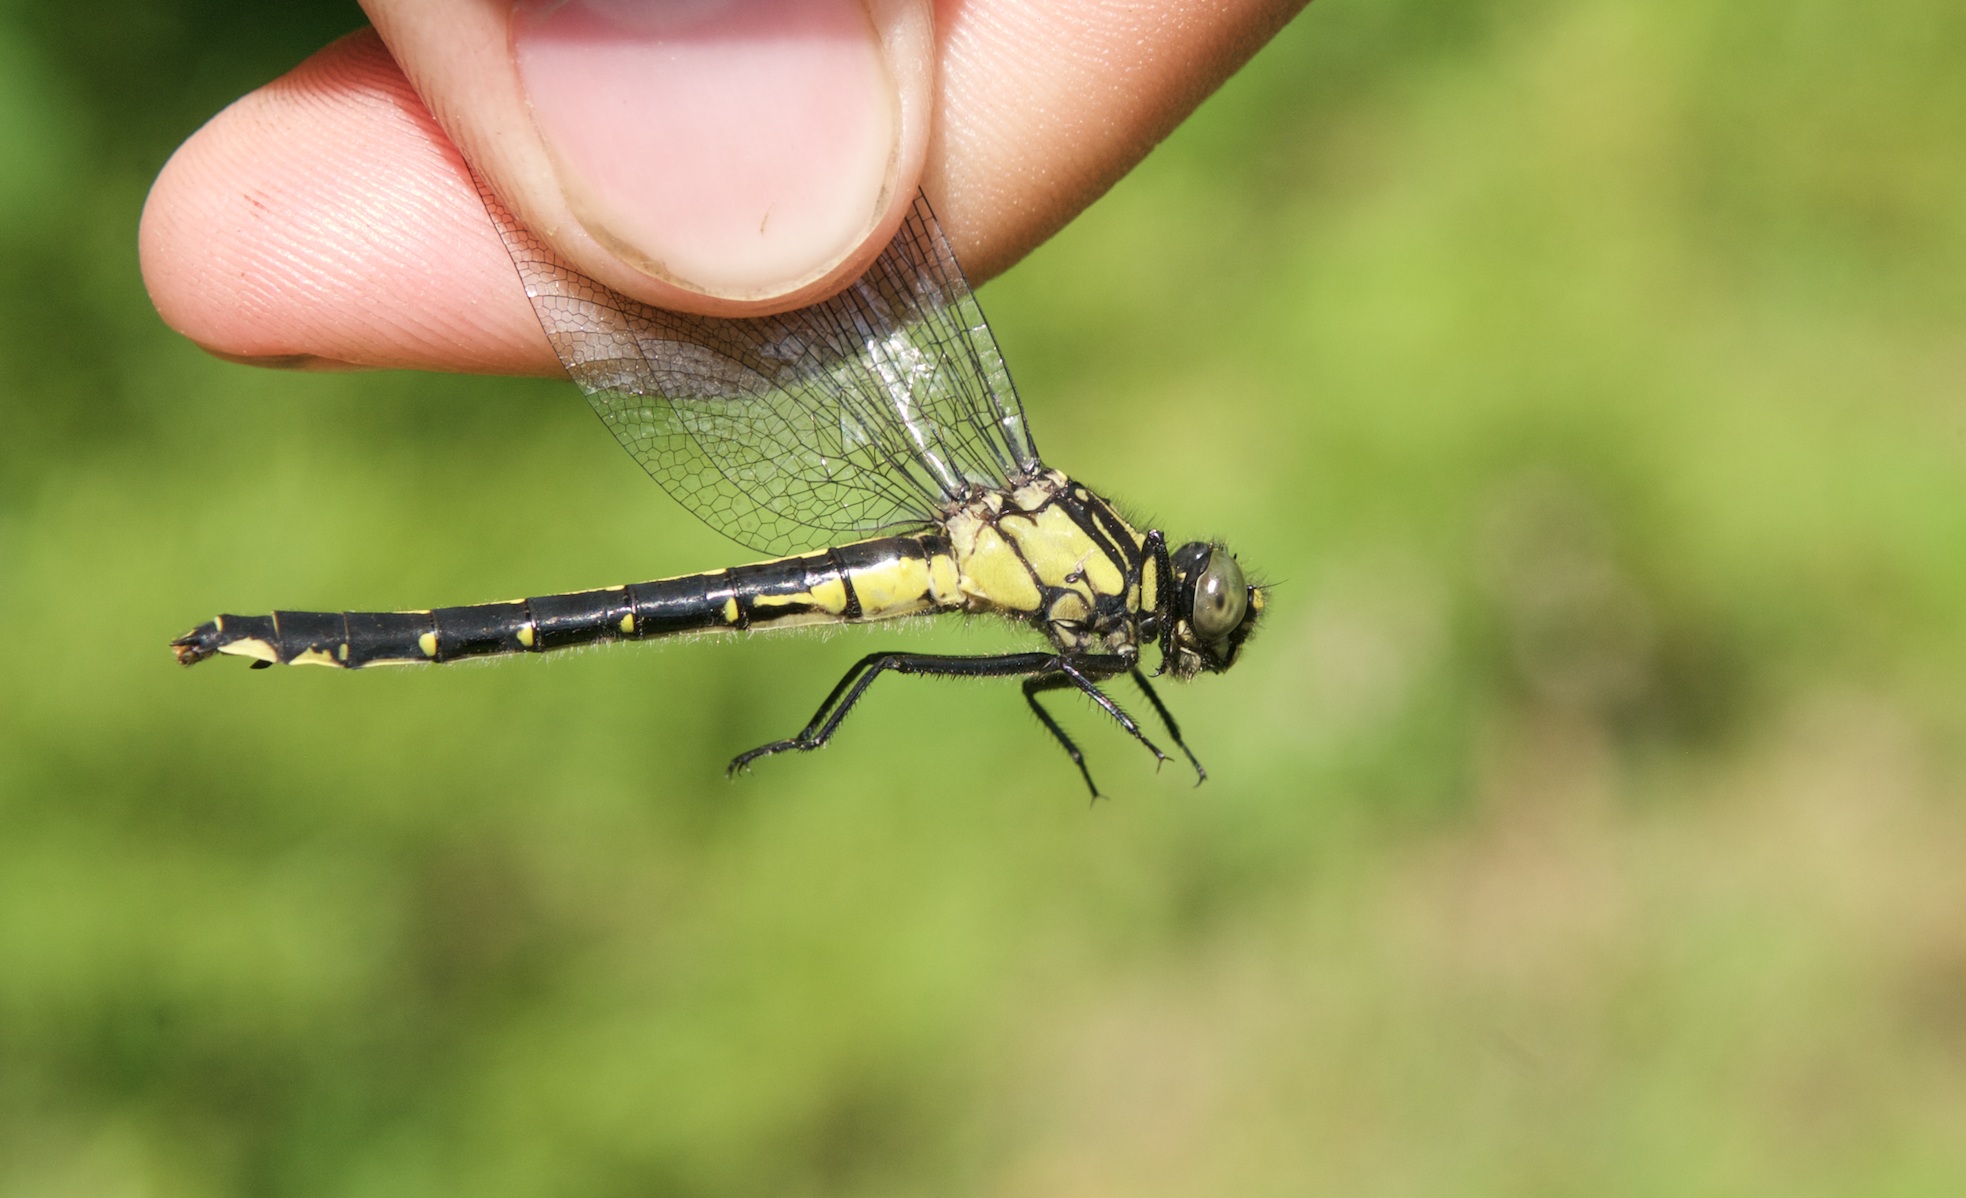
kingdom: Animalia
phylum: Arthropoda
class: Insecta
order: Odonata
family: Gomphidae
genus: Hylogomphus
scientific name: Hylogomphus adelphus
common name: Mustached clubtail
